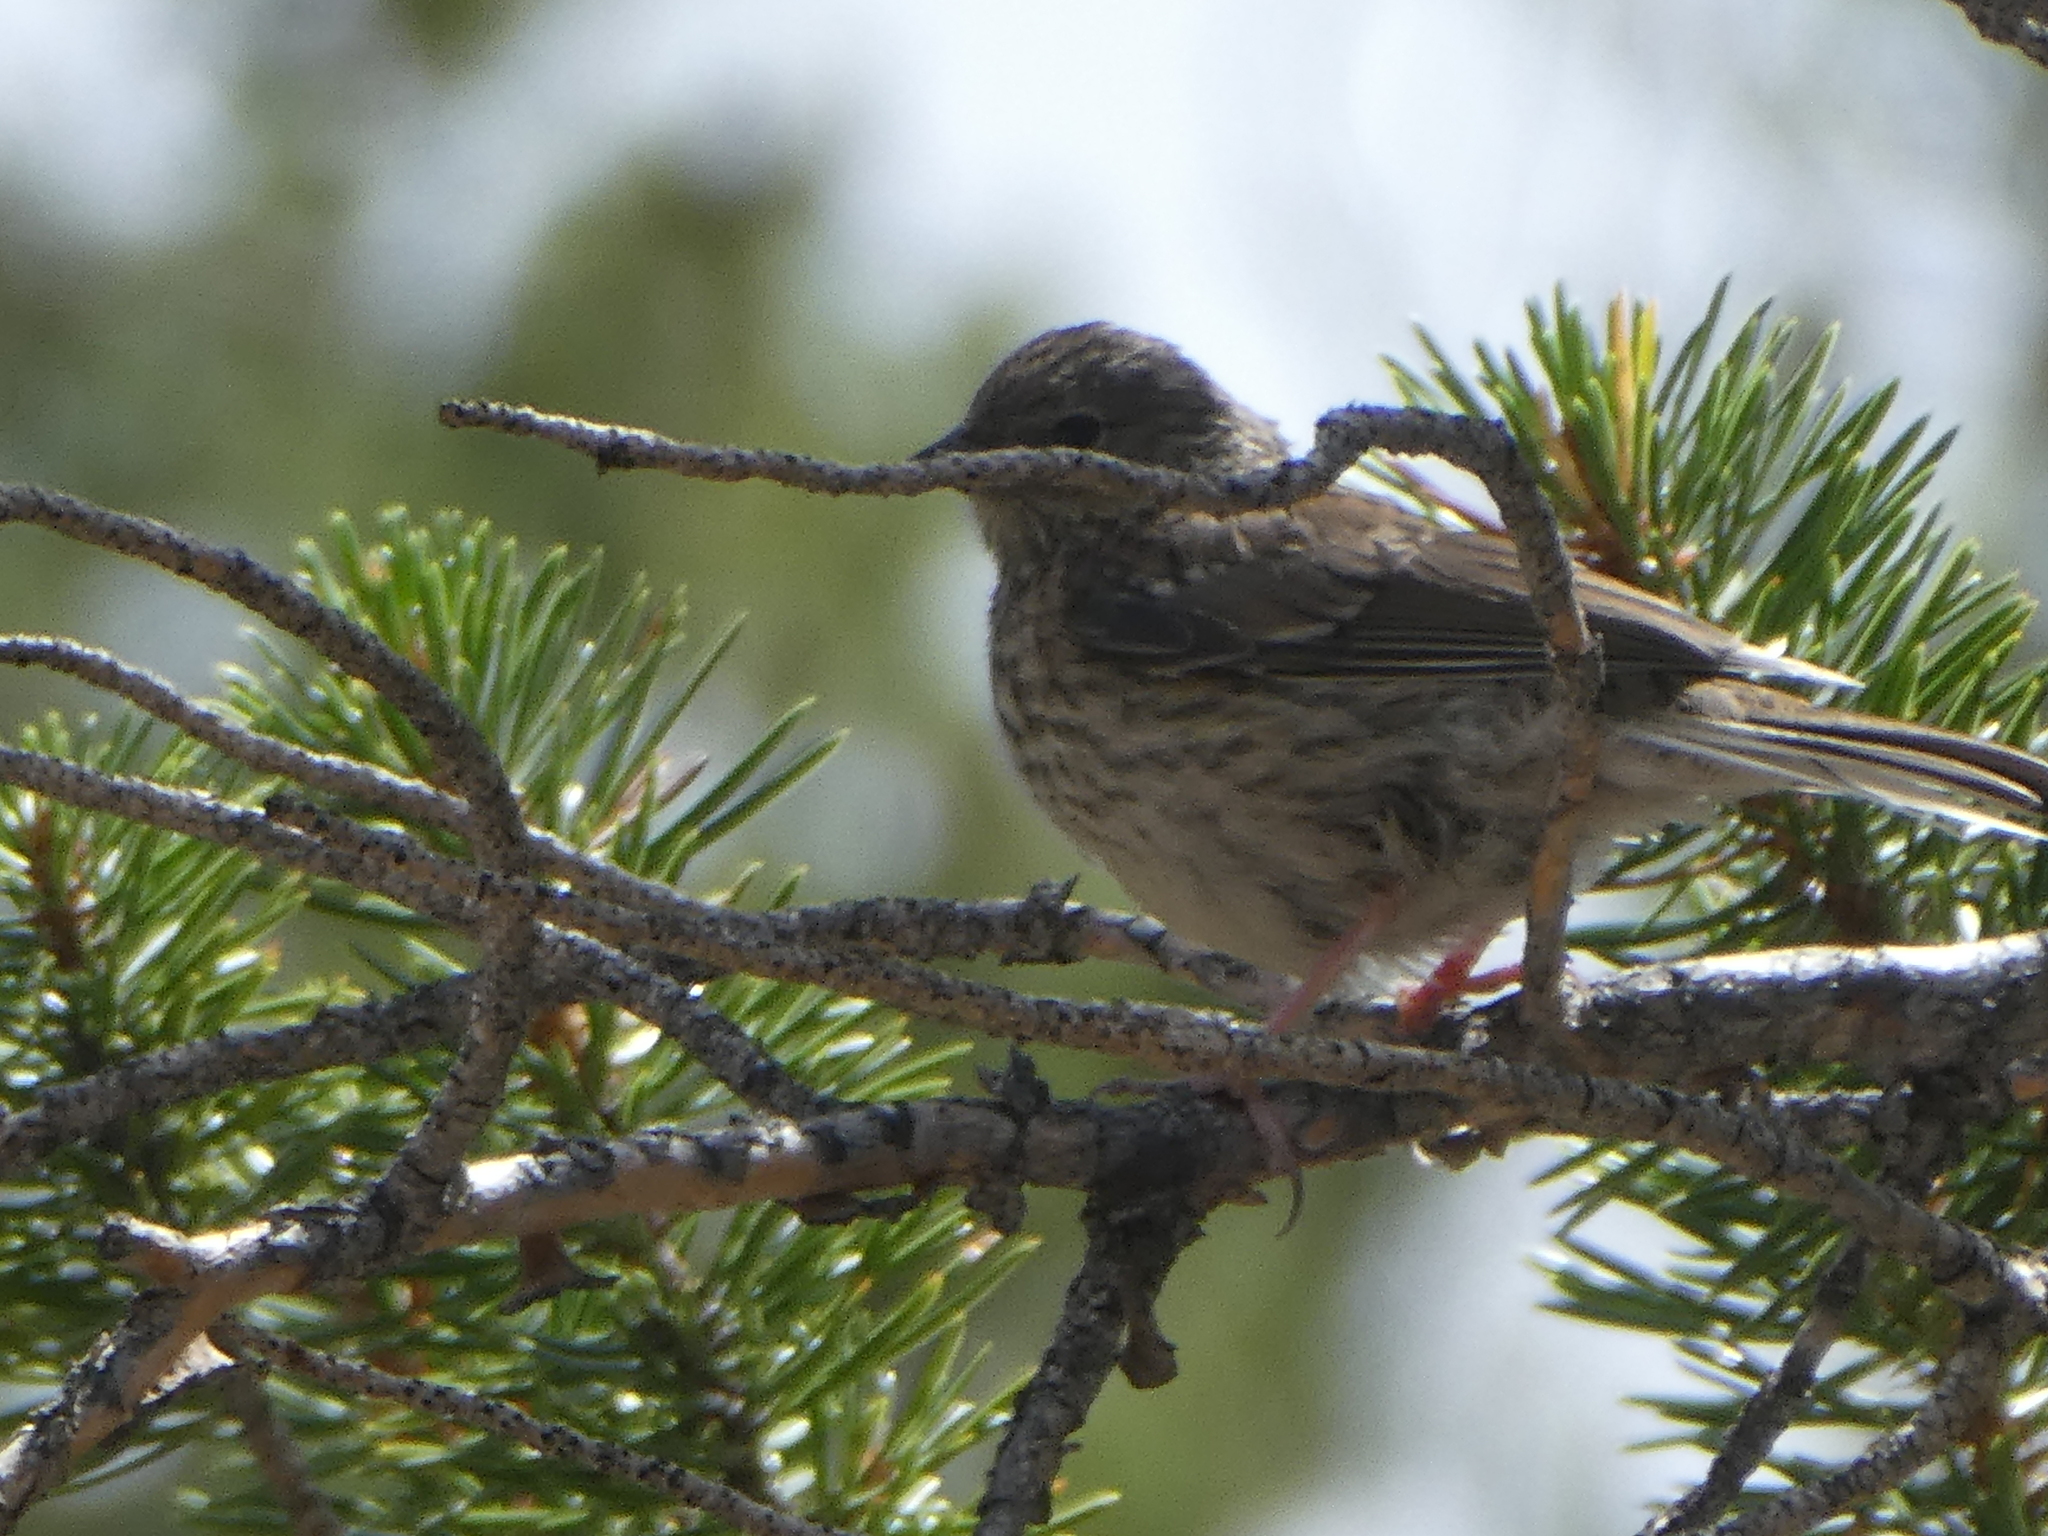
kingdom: Animalia
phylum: Chordata
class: Aves
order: Passeriformes
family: Passerellidae
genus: Junco
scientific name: Junco hyemalis
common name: Dark-eyed junco
